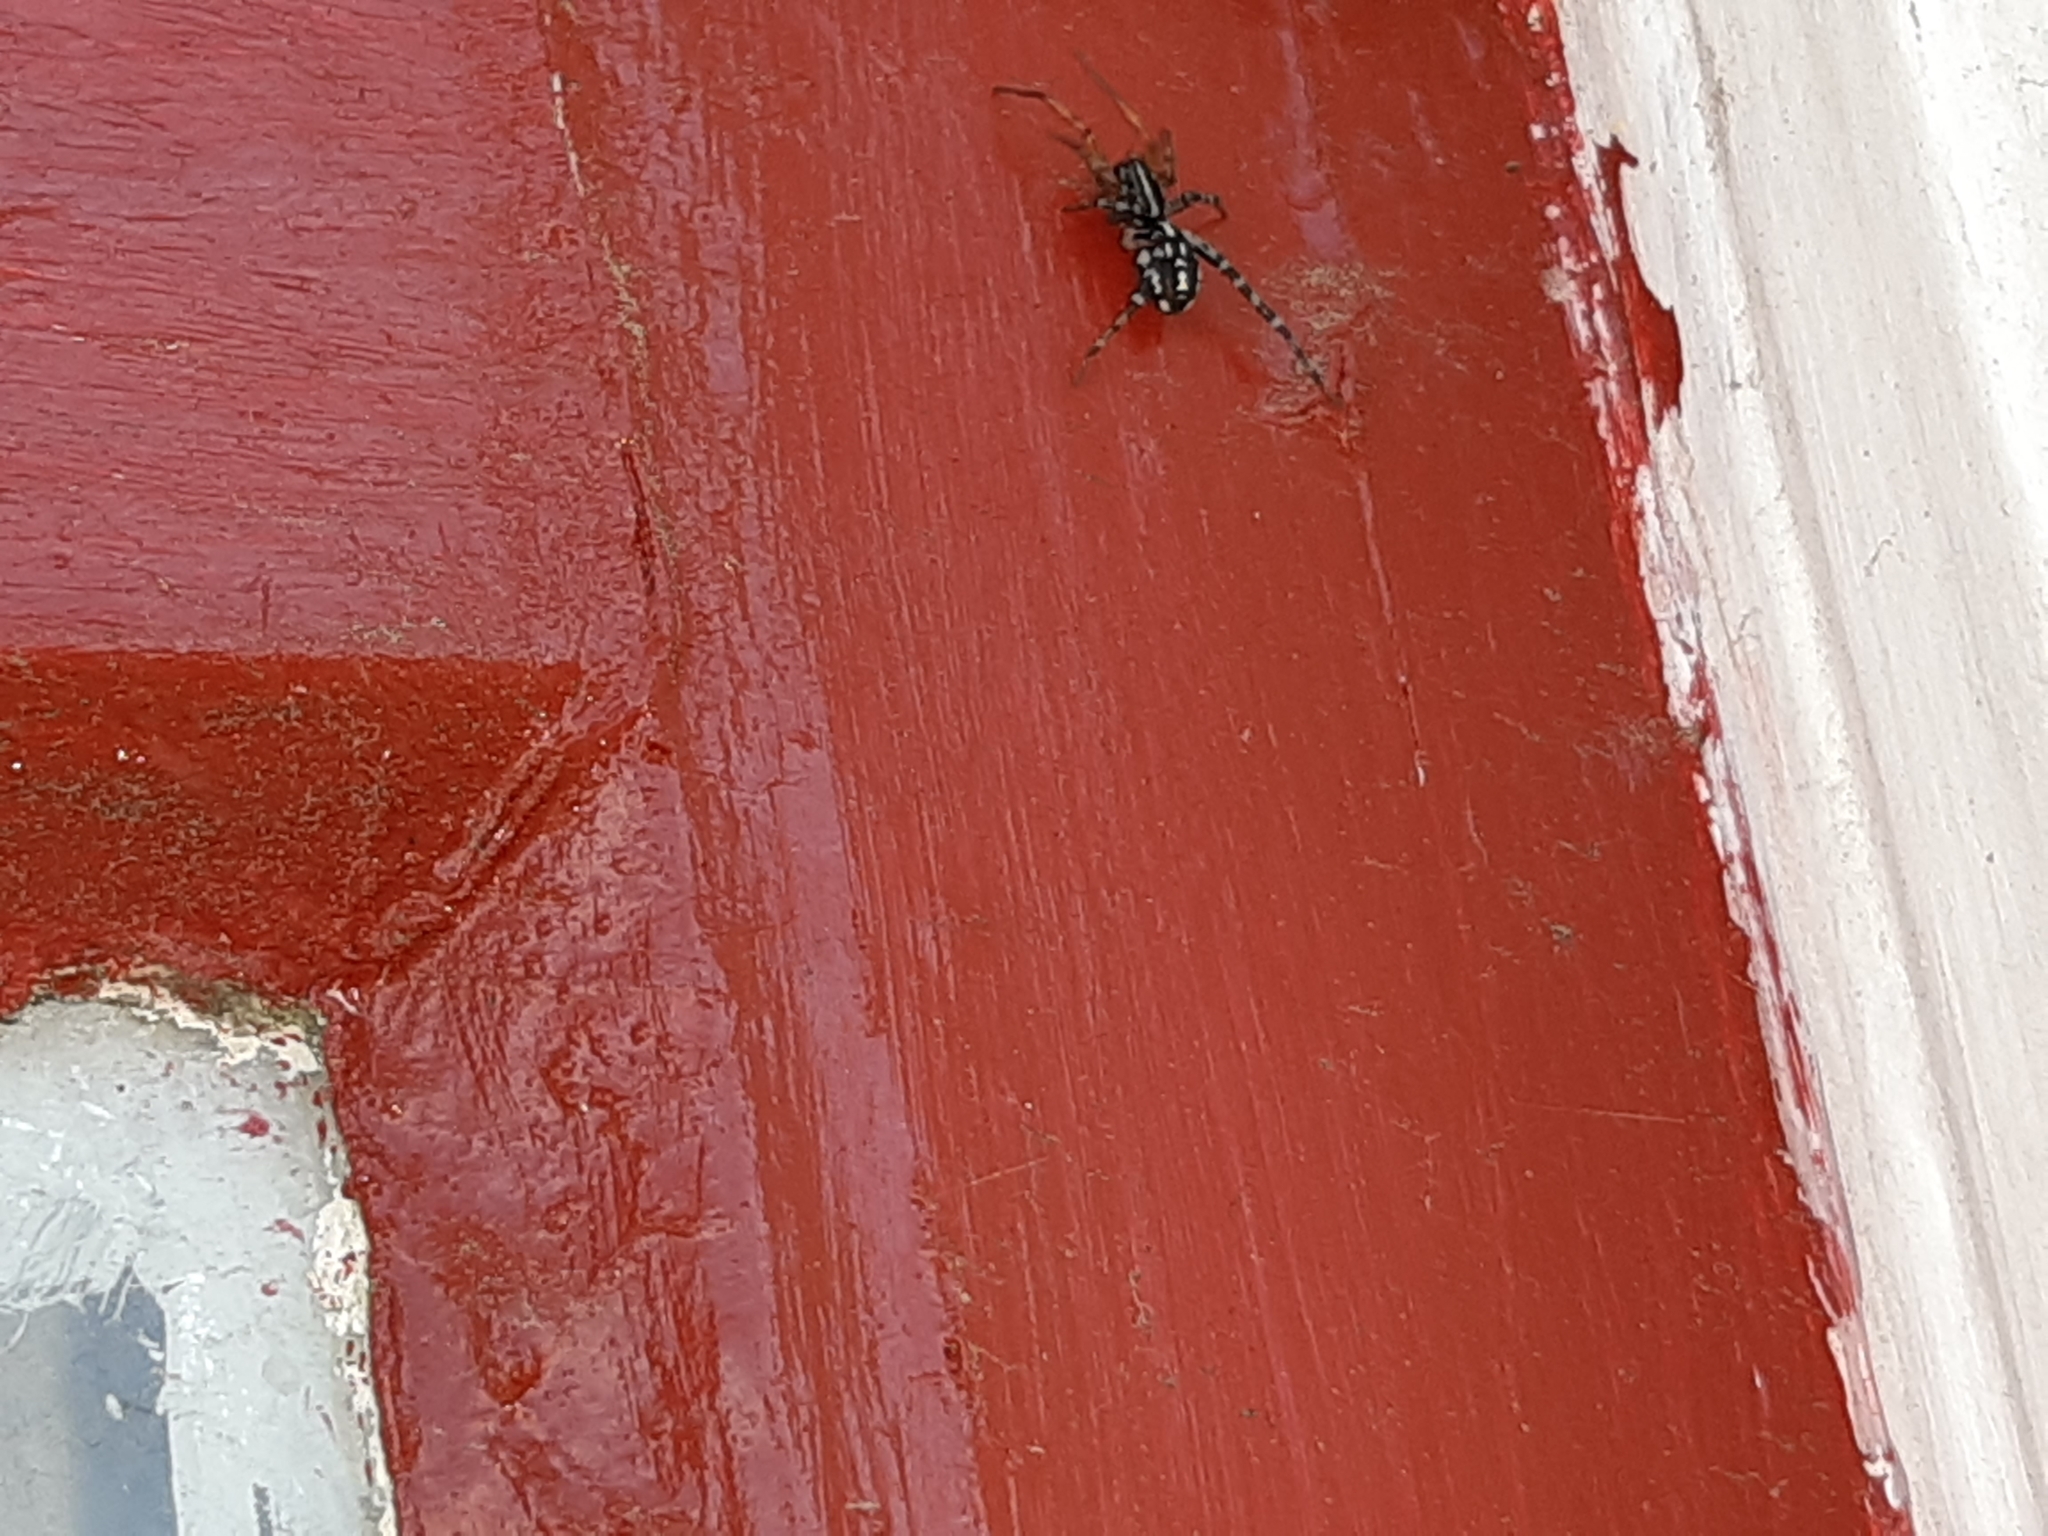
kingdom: Animalia
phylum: Arthropoda
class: Arachnida
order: Araneae
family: Corinnidae
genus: Nyssus
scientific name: Nyssus coloripes
